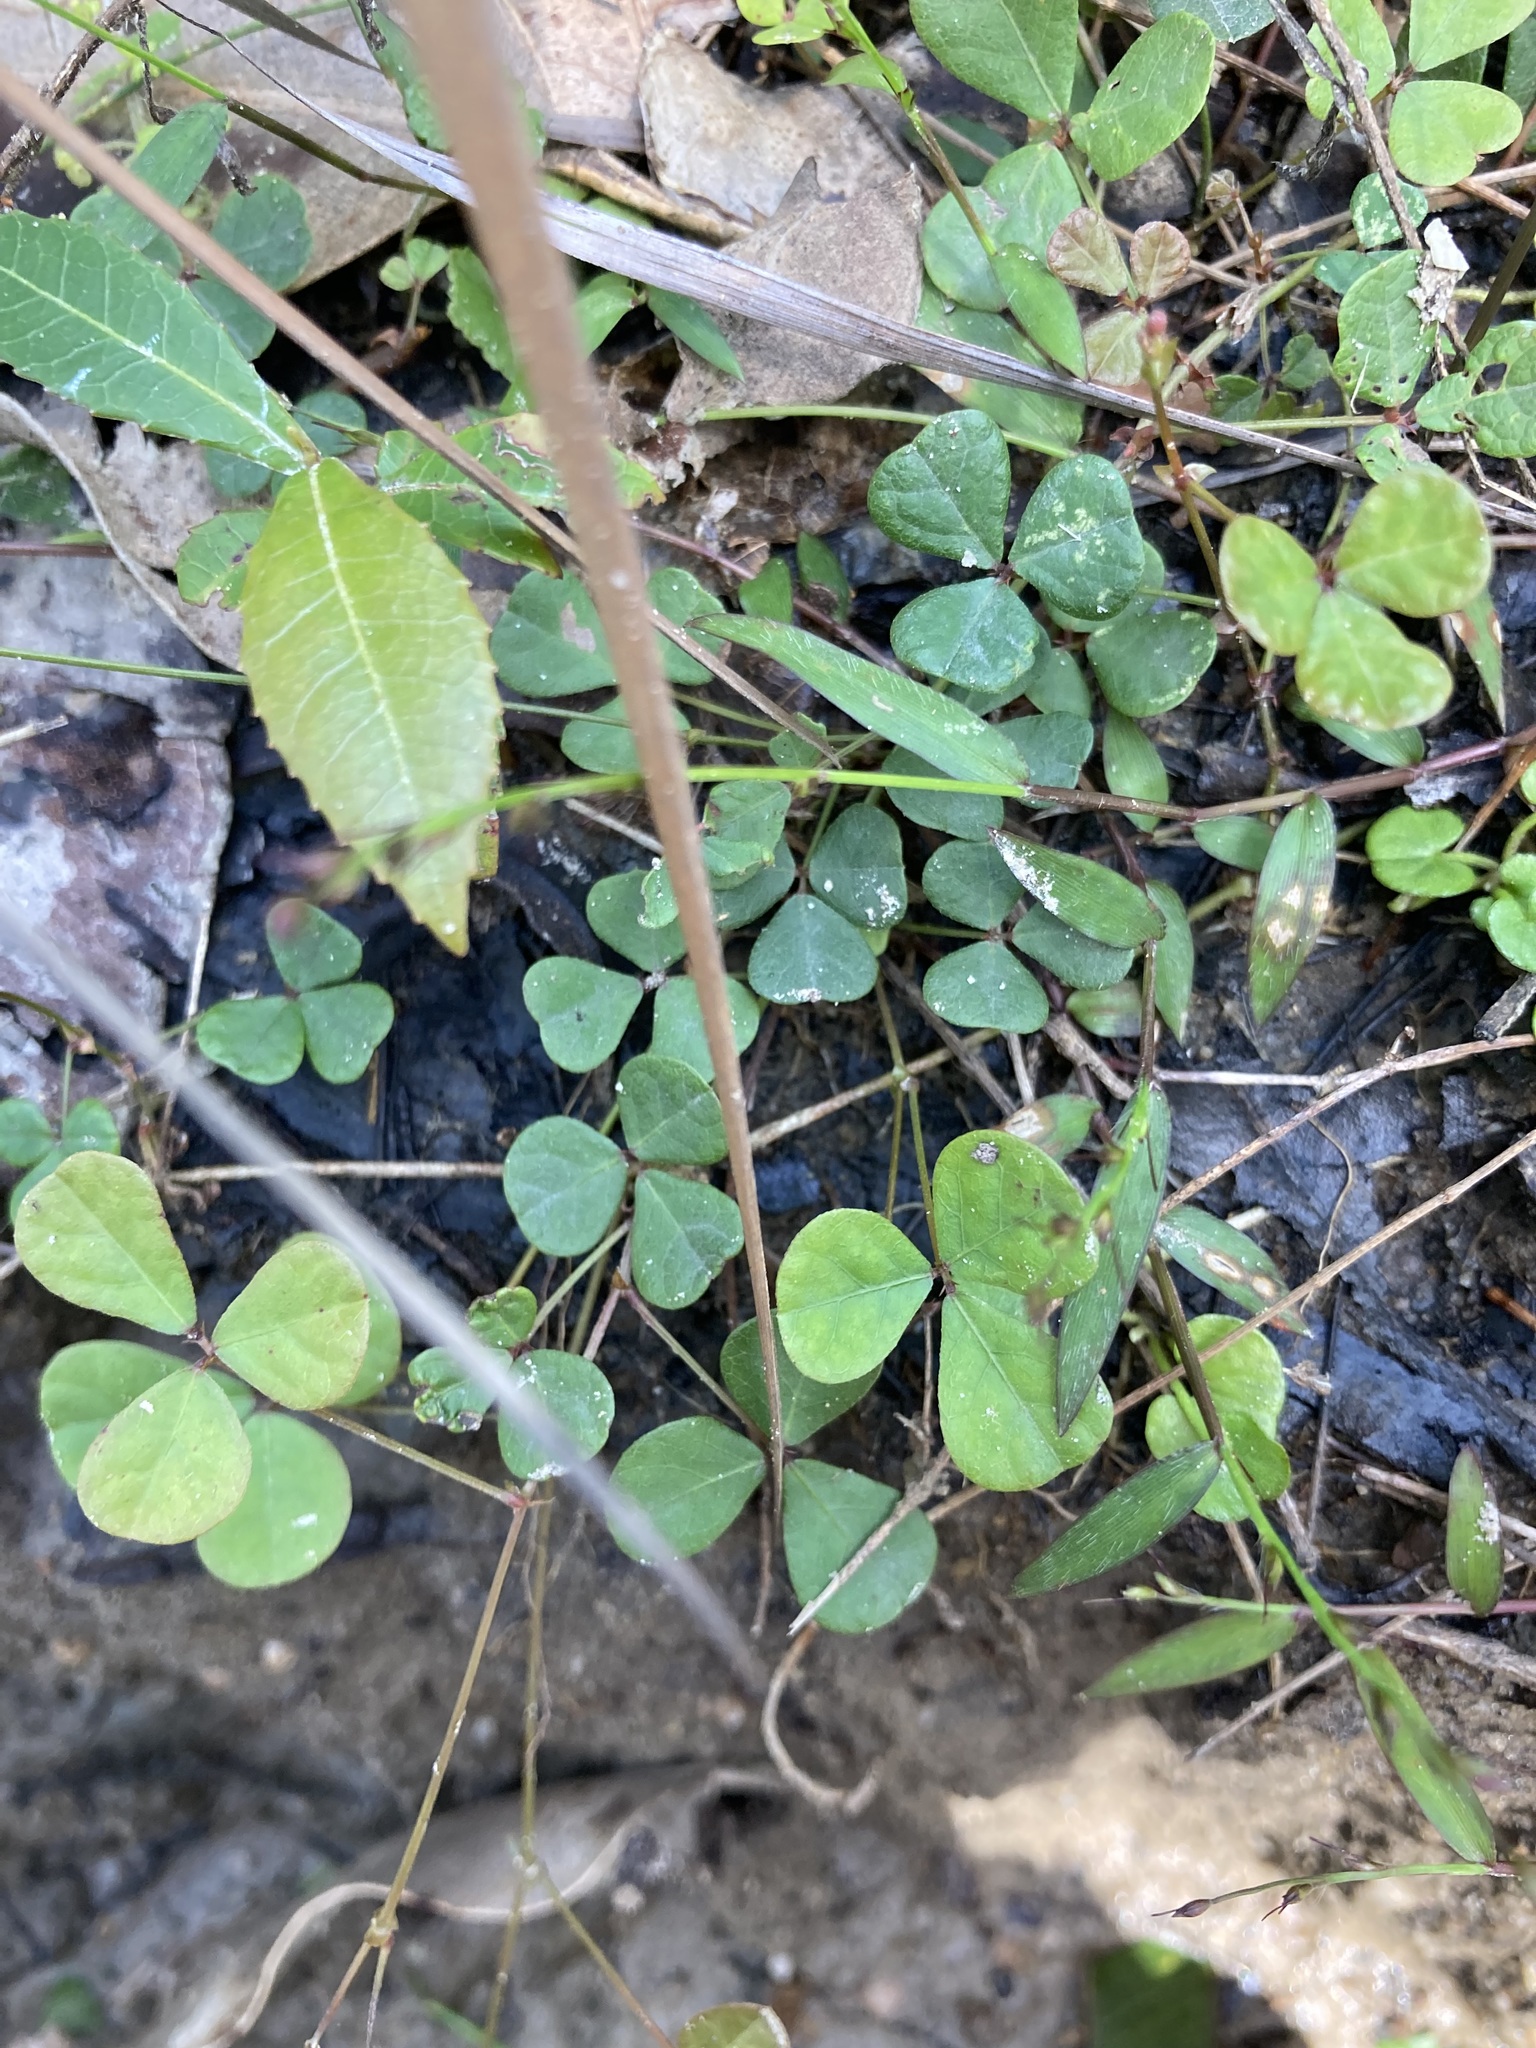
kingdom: Plantae
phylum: Tracheophyta
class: Magnoliopsida
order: Fabales
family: Fabaceae
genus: Pullenia
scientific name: Pullenia gunnii
